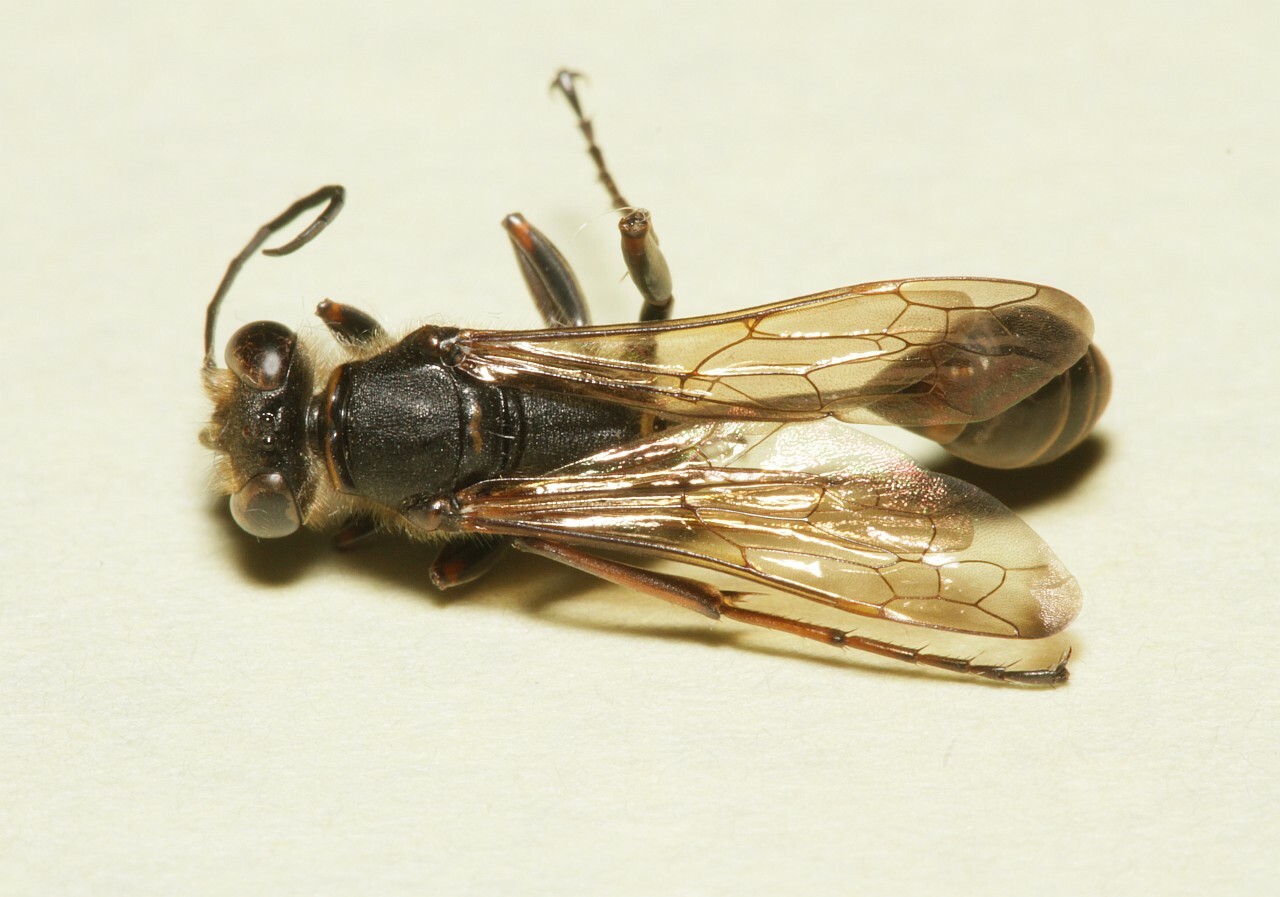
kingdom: Animalia
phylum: Arthropoda
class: Insecta
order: Hymenoptera
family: Sphecidae
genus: Sceliphron
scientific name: Sceliphron curvatum
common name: Pèlopèe
